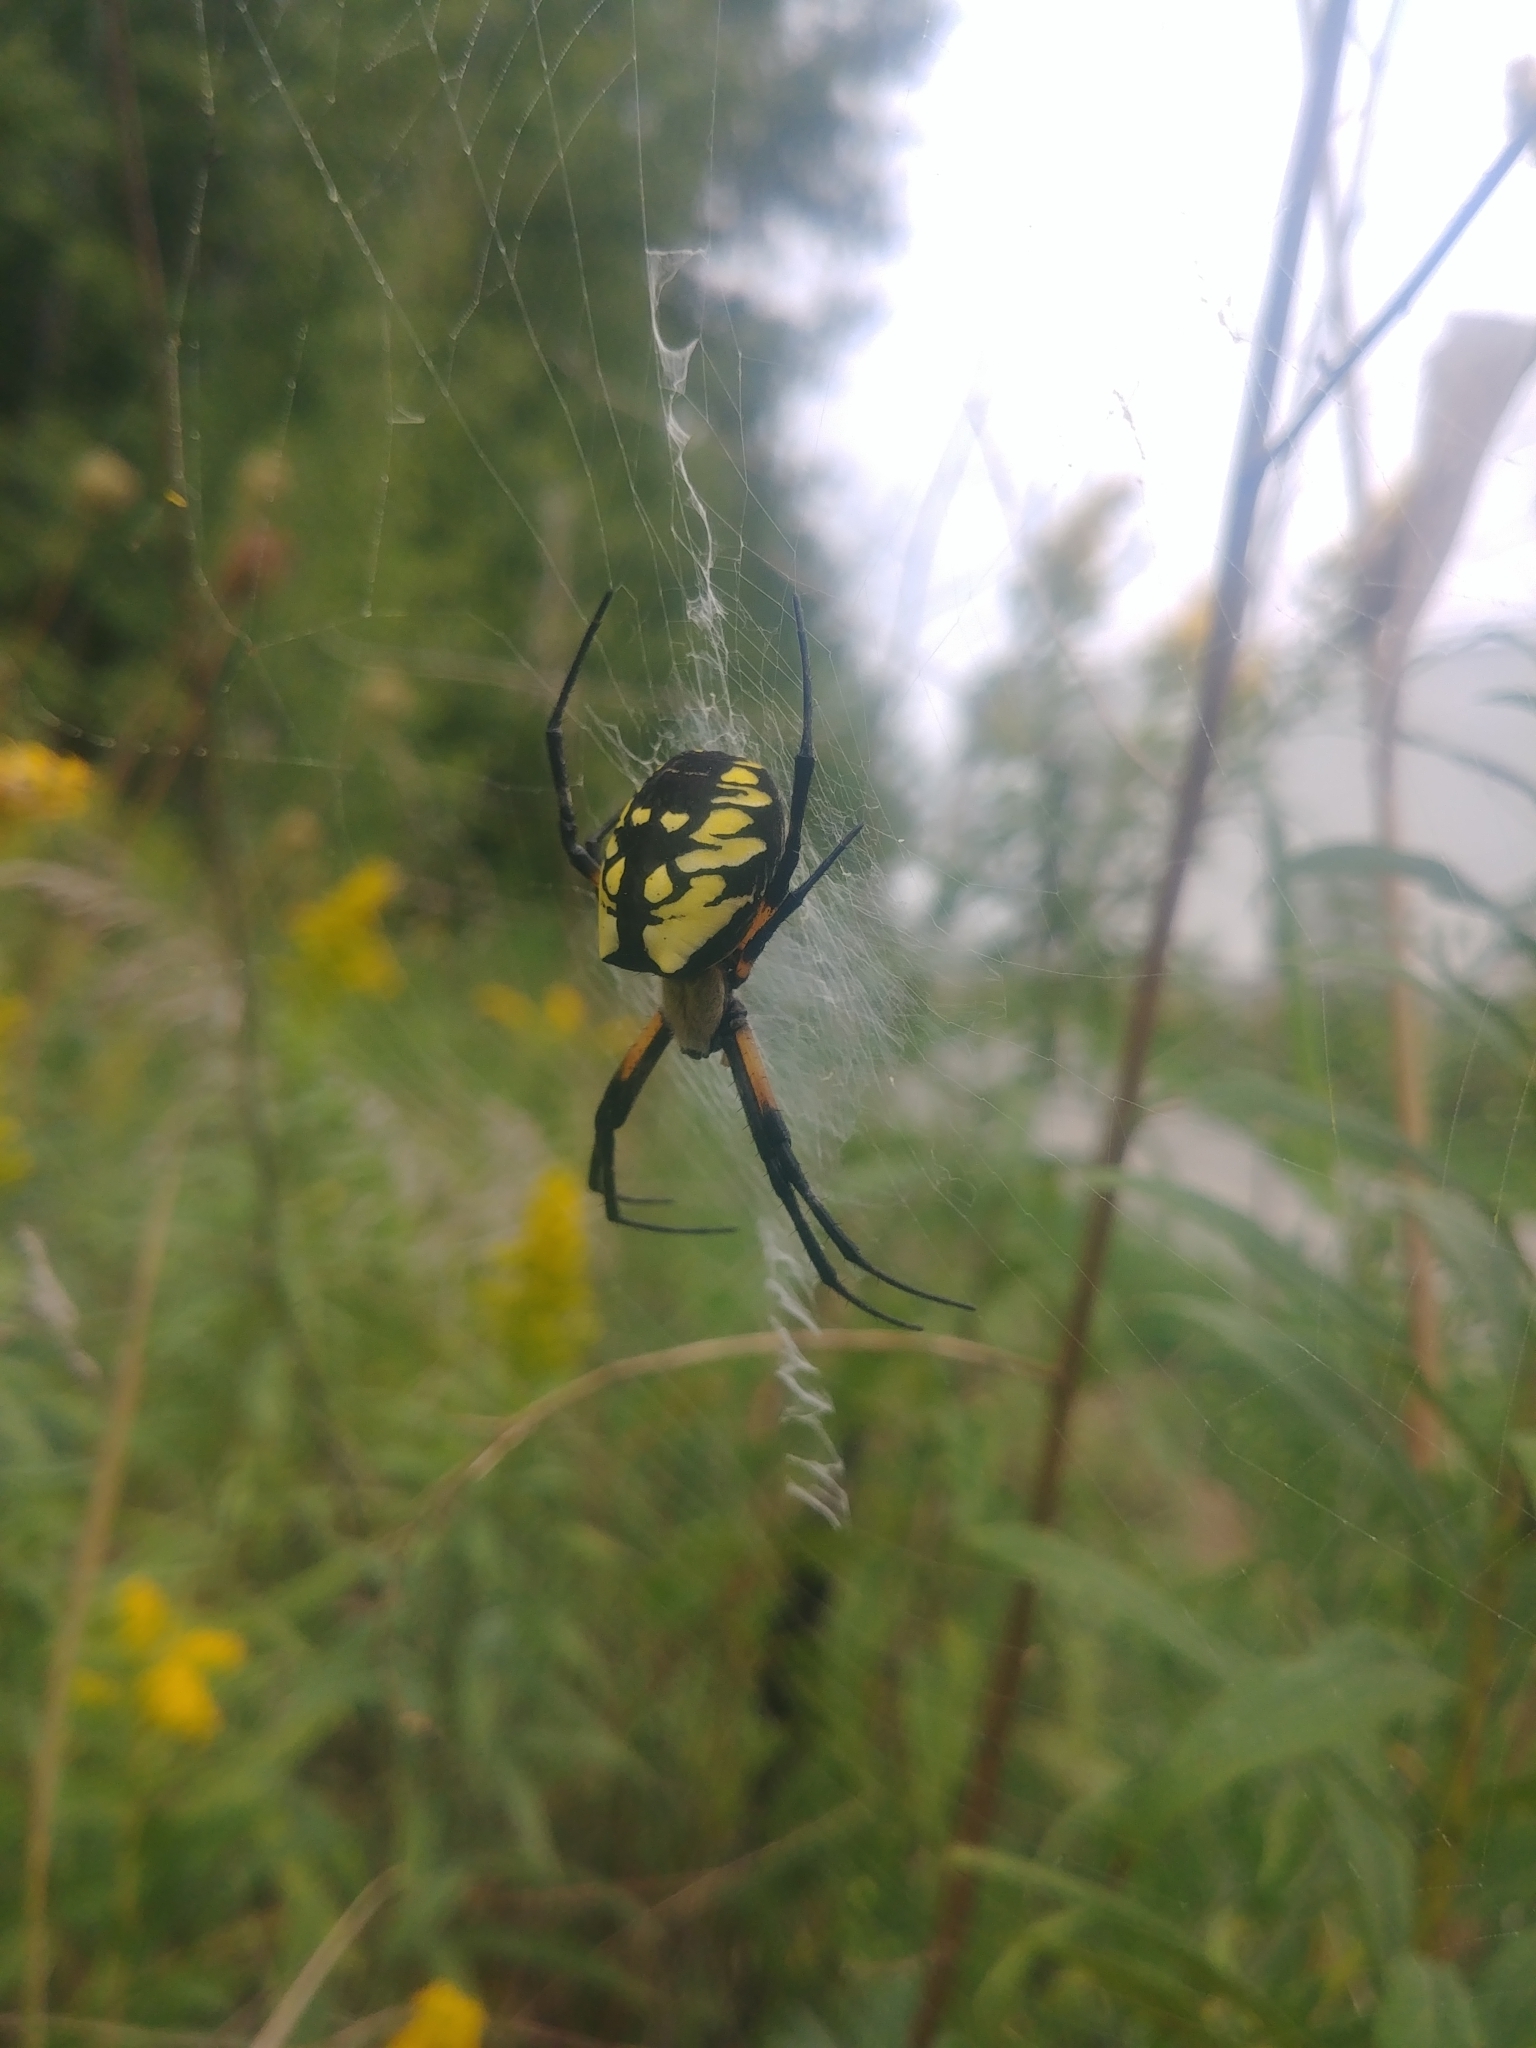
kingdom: Animalia
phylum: Arthropoda
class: Arachnida
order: Araneae
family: Araneidae
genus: Argiope
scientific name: Argiope aurantia
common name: Orb weavers
